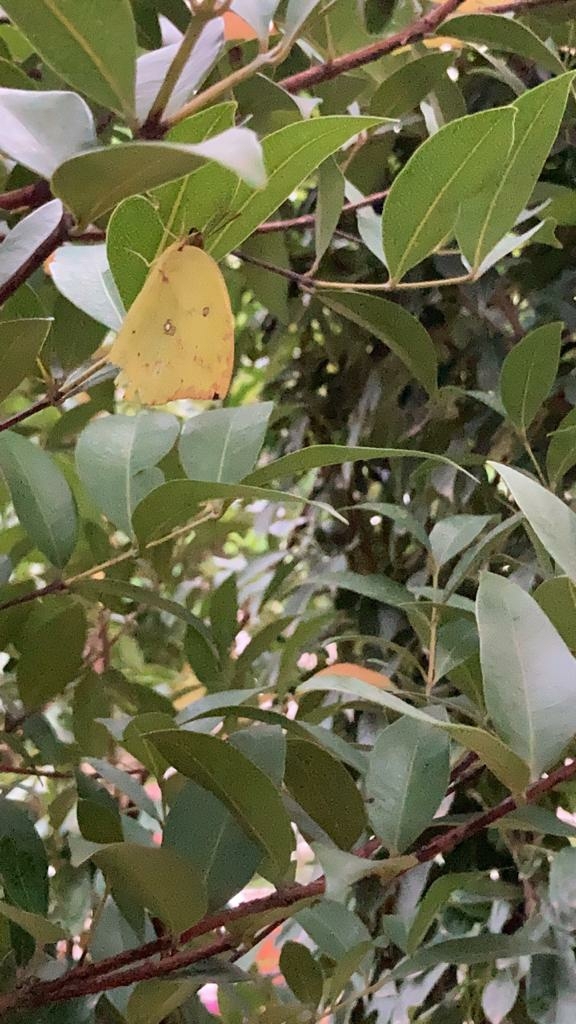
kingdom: Animalia
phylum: Arthropoda
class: Insecta
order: Lepidoptera
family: Pieridae
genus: Catopsilia
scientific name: Catopsilia pomona
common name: Common emigrant
